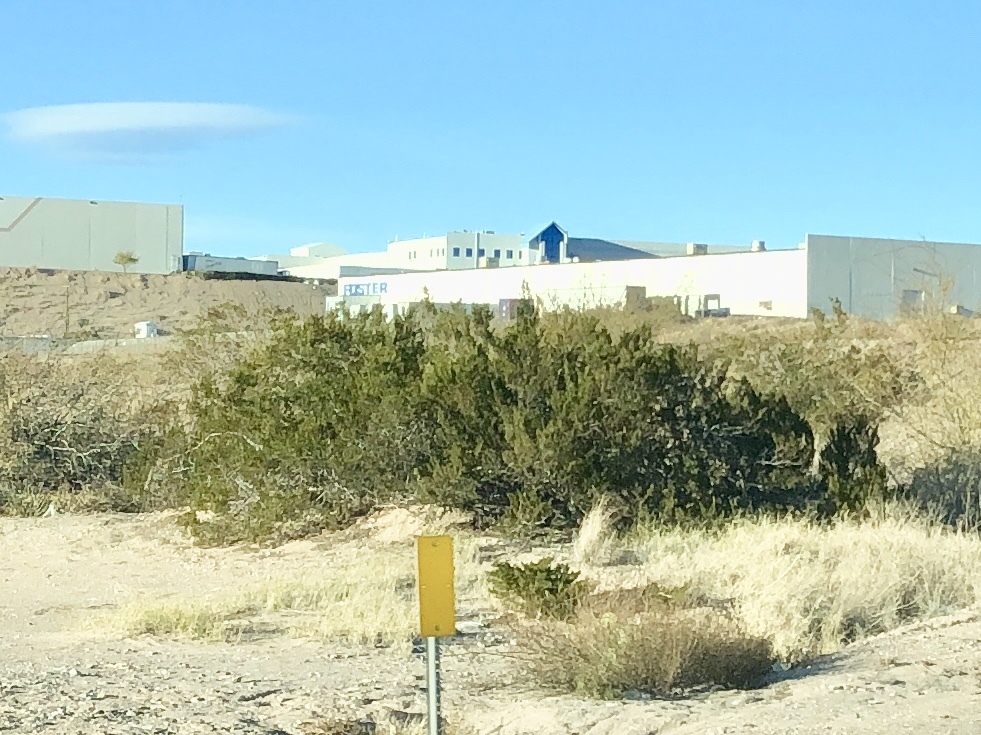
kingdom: Plantae
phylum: Tracheophyta
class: Magnoliopsida
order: Zygophyllales
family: Zygophyllaceae
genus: Larrea
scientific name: Larrea tridentata
